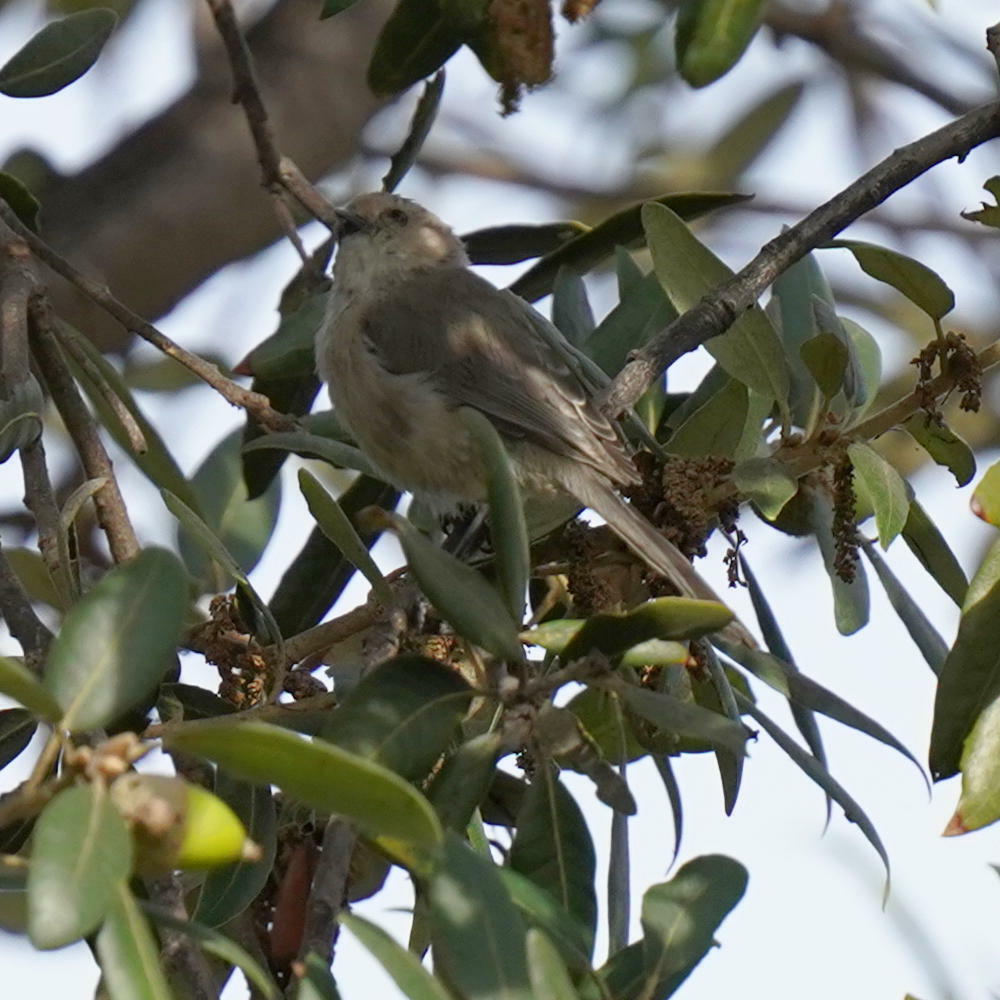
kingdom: Animalia
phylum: Chordata
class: Aves
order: Passeriformes
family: Aegithalidae
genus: Psaltriparus
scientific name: Psaltriparus minimus
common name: American bushtit
